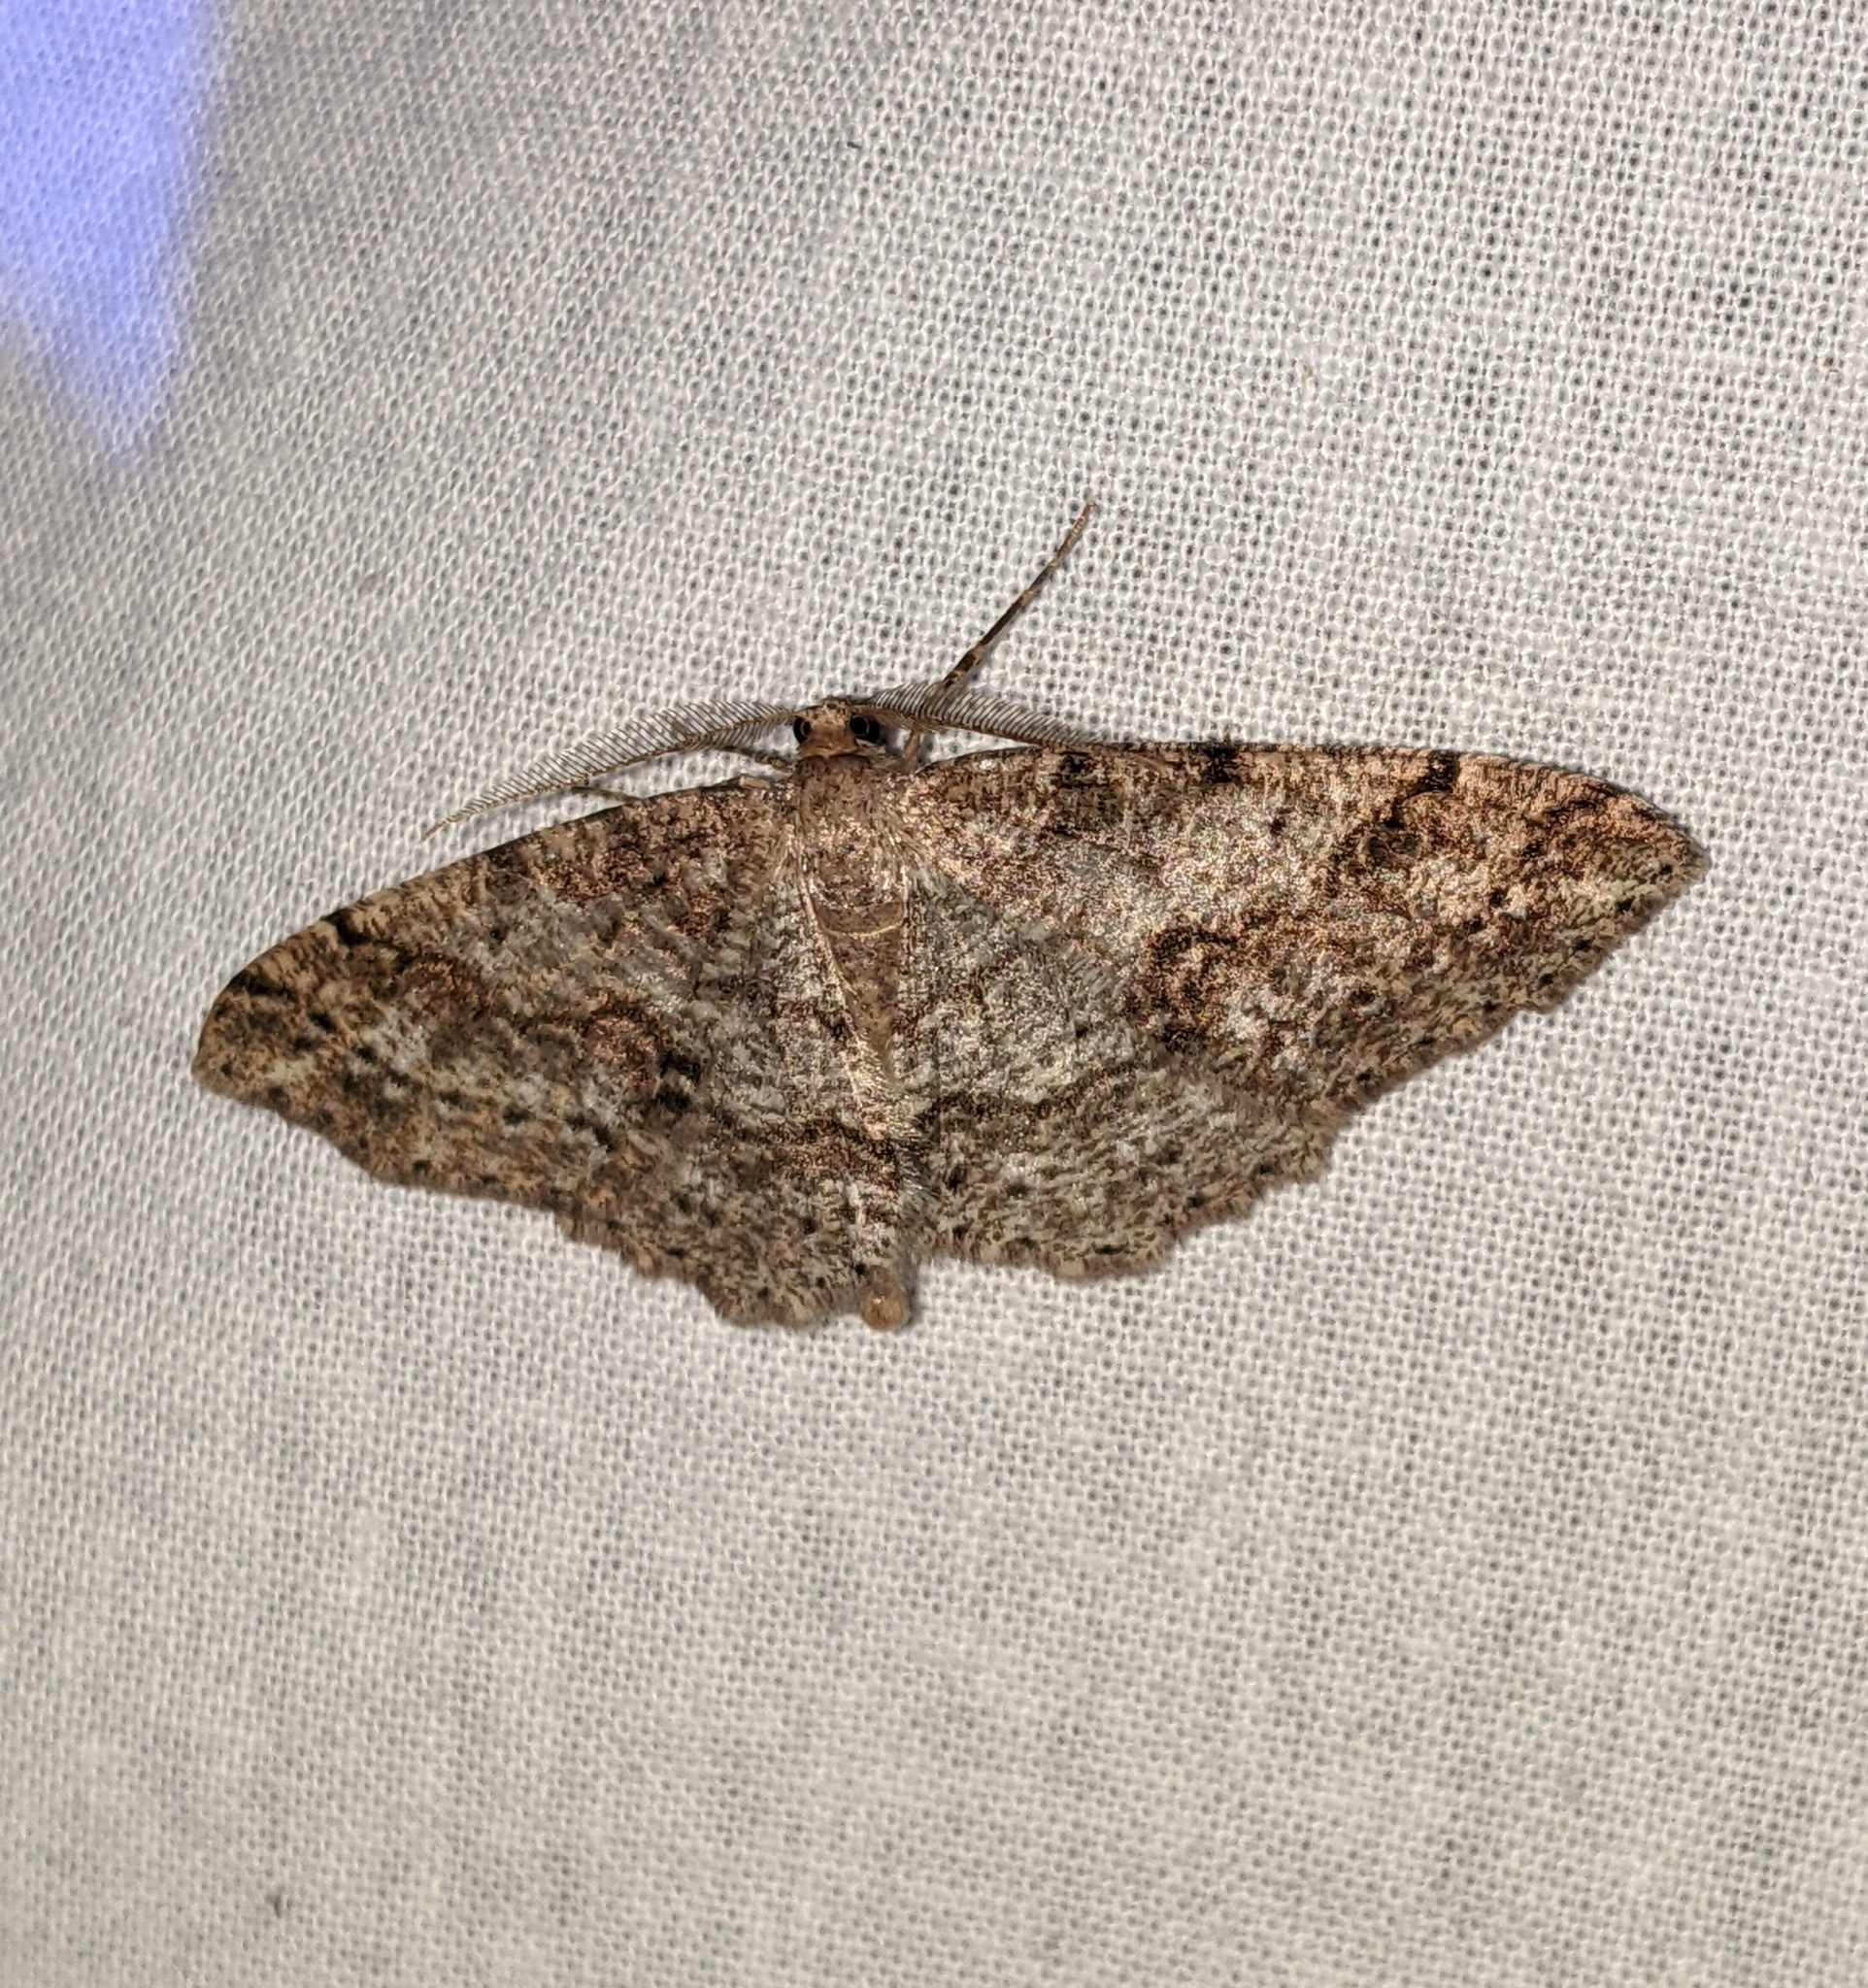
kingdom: Animalia
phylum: Arthropoda
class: Insecta
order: Lepidoptera
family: Geometridae
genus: Melanolophia
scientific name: Melanolophia imitata
